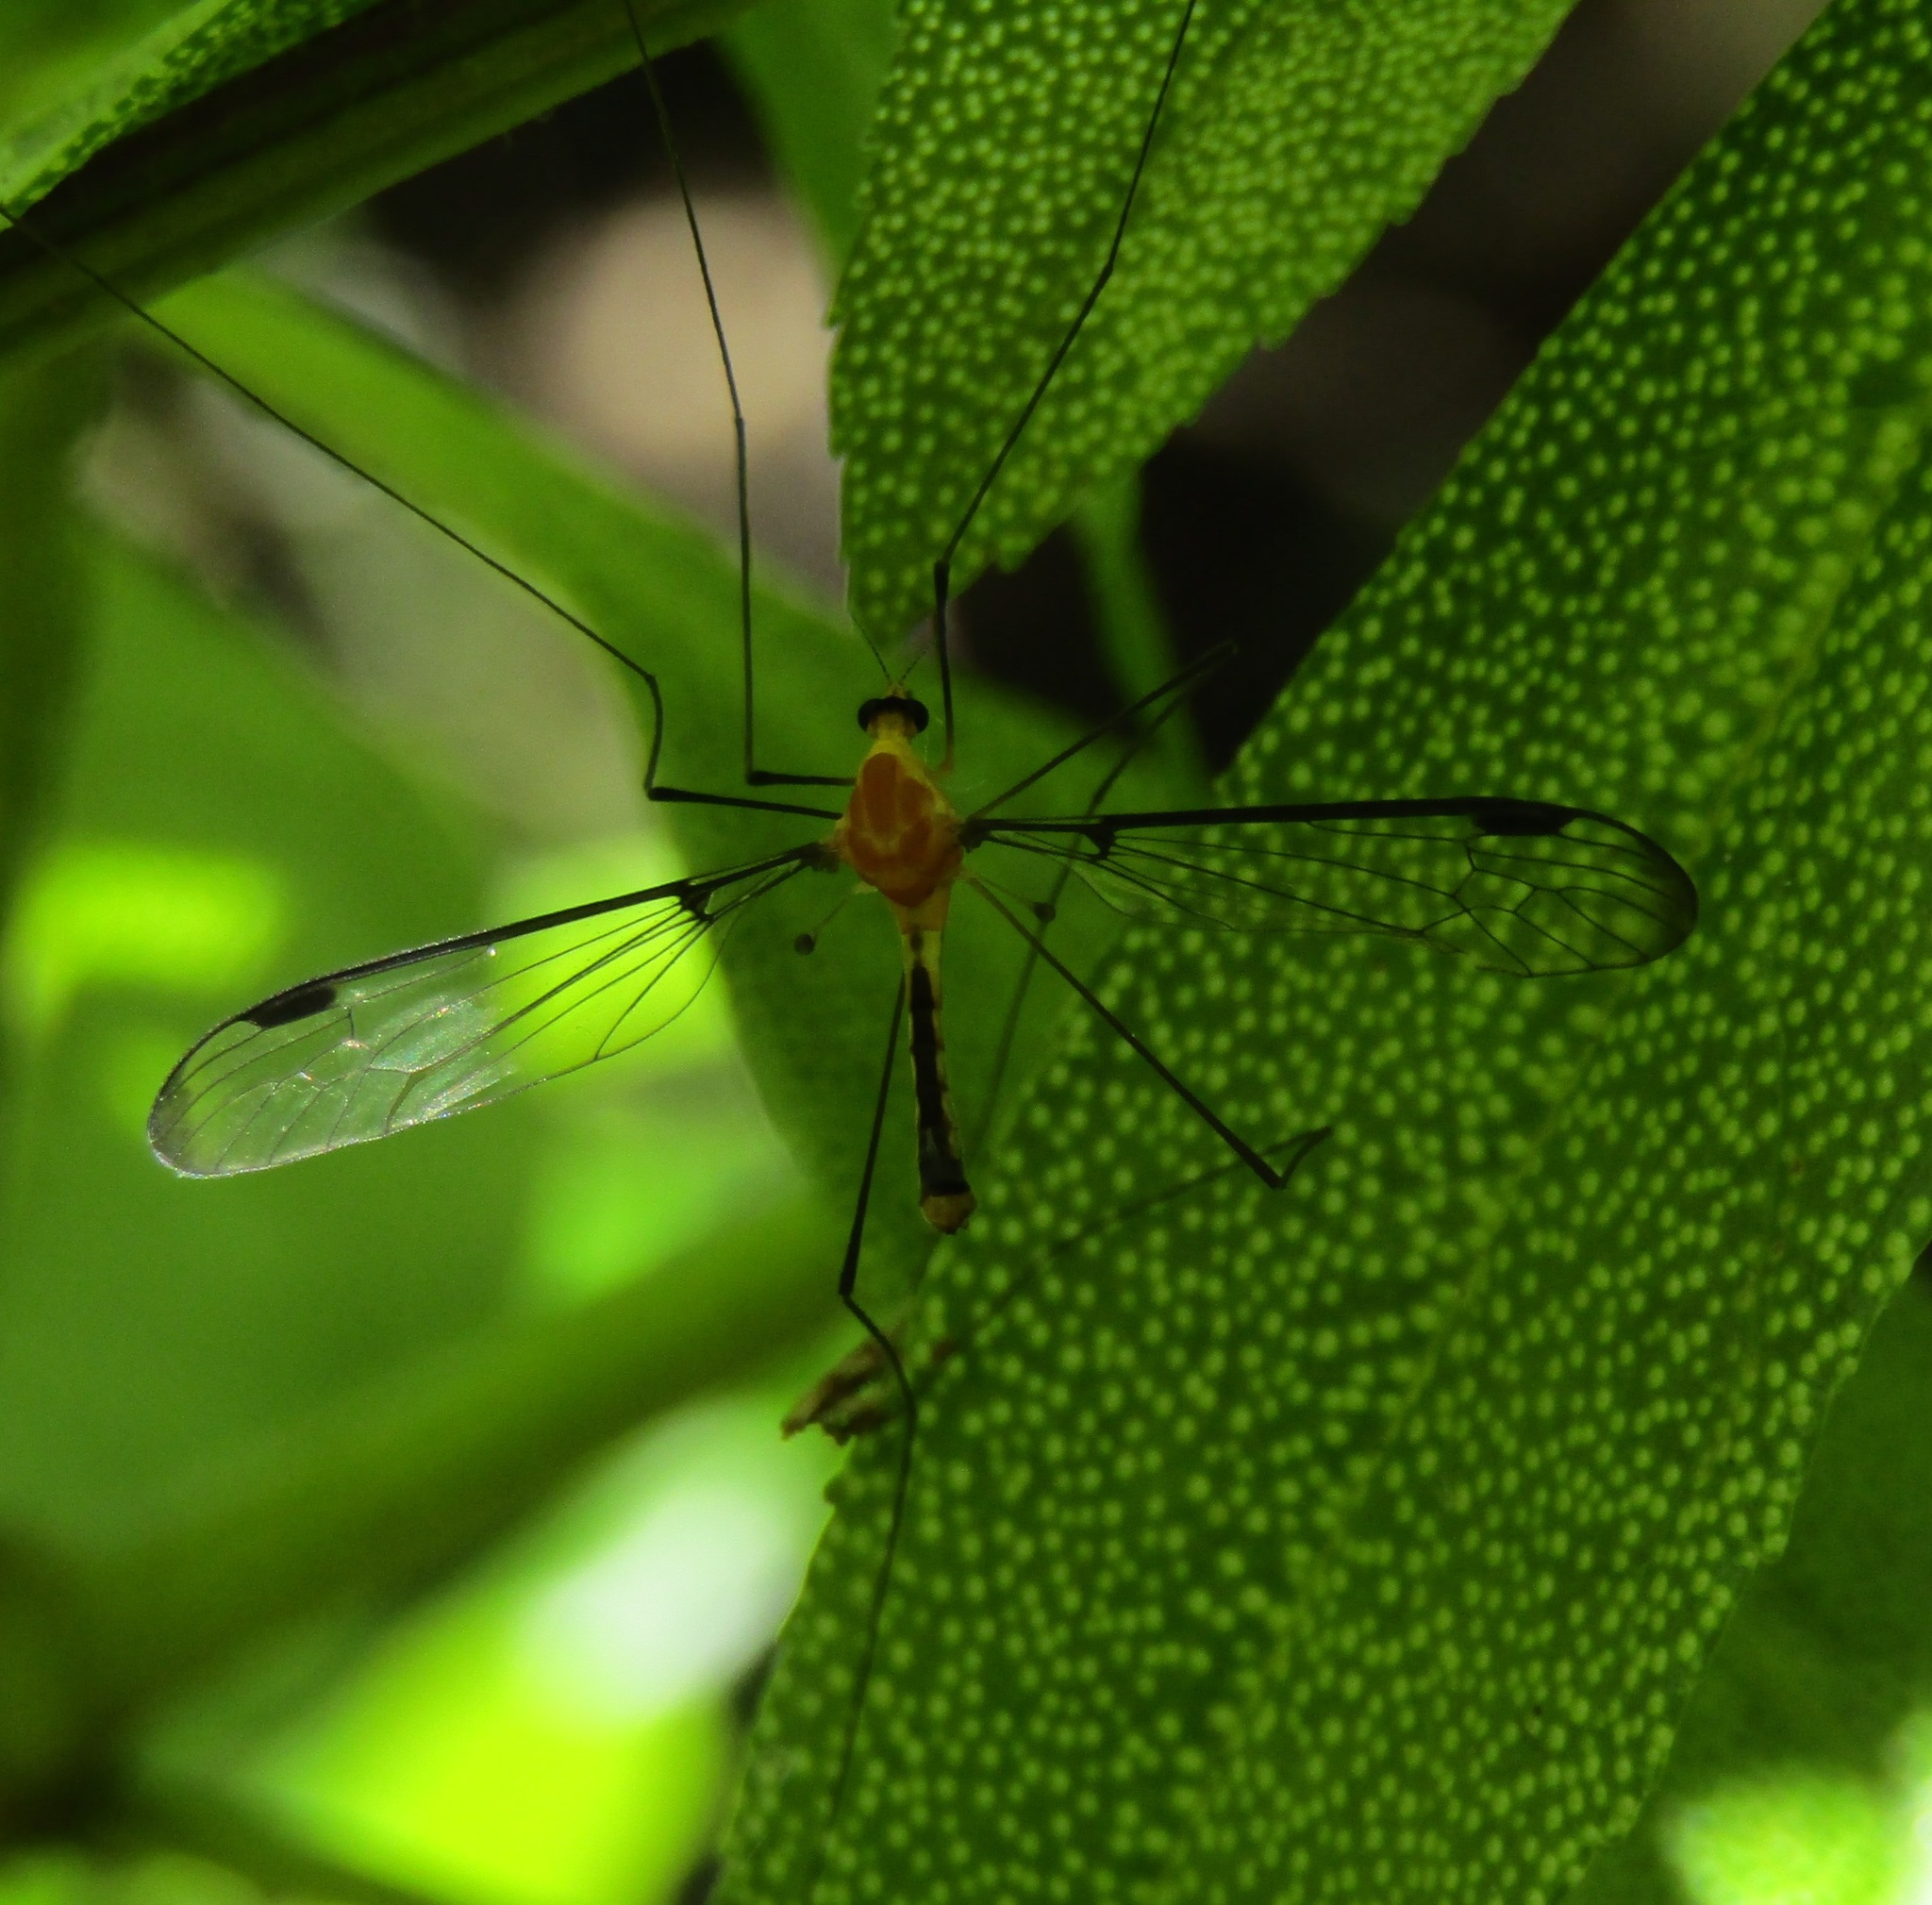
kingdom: Animalia
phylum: Arthropoda
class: Insecta
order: Diptera
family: Tipulidae
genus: Aurotipula
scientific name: Aurotipula
